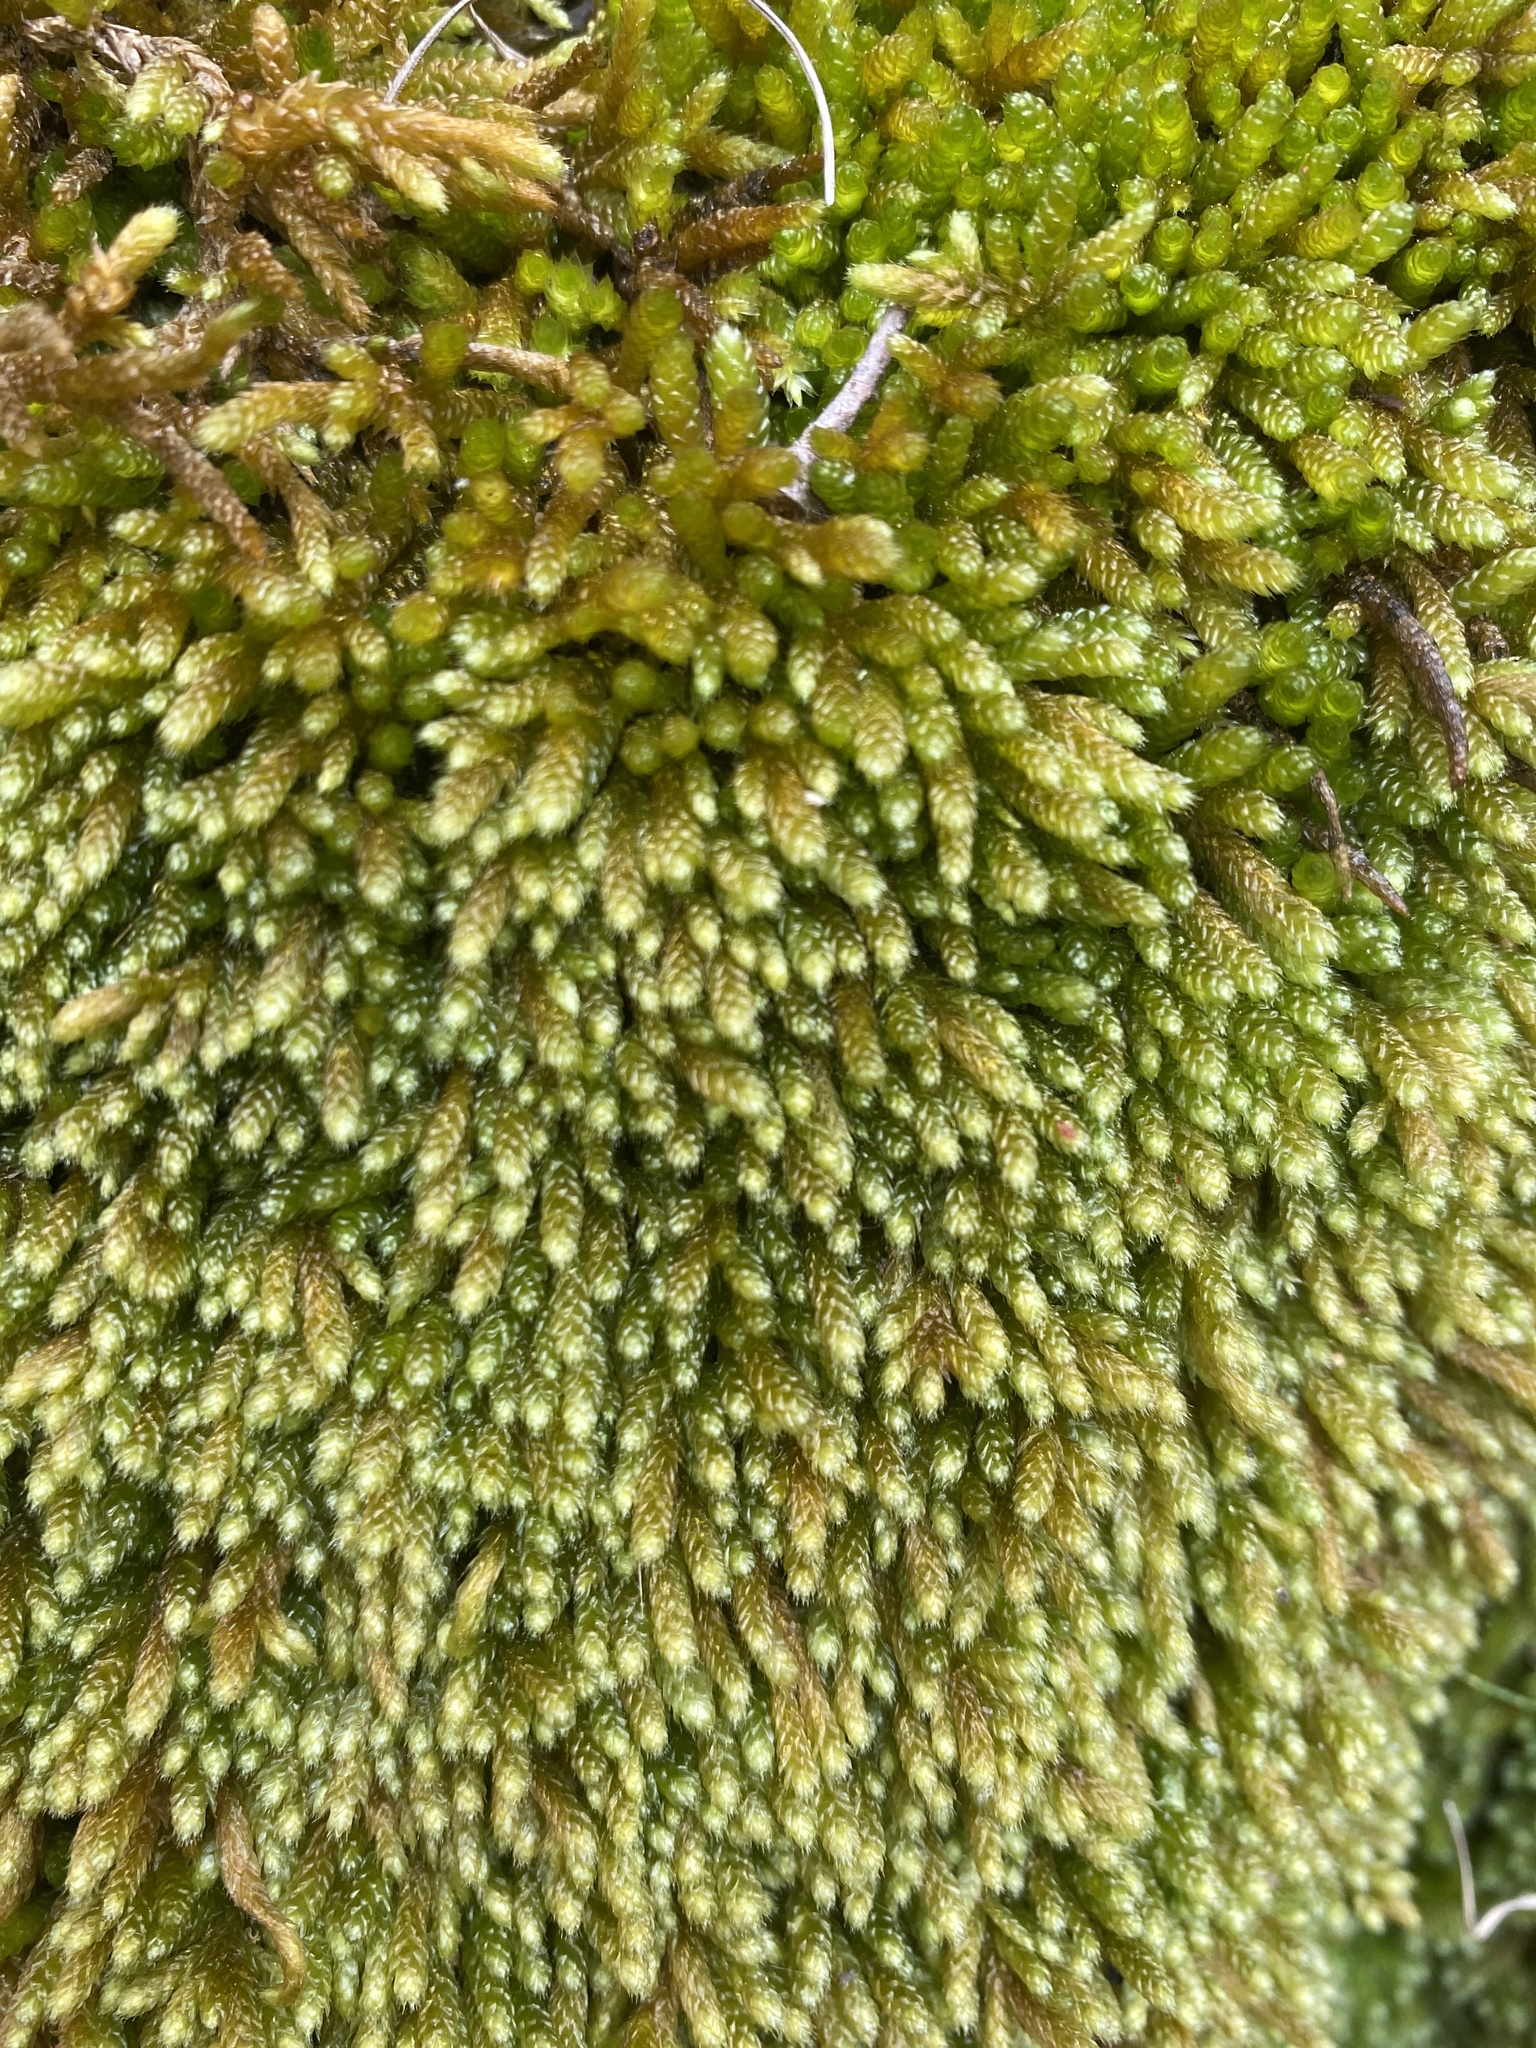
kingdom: Plantae
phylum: Bryophyta
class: Bryopsida
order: Hypnales
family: Brachytheciaceae
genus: Bryoandersonia
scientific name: Bryoandersonia illecebra
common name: Spoon-leaved moss
